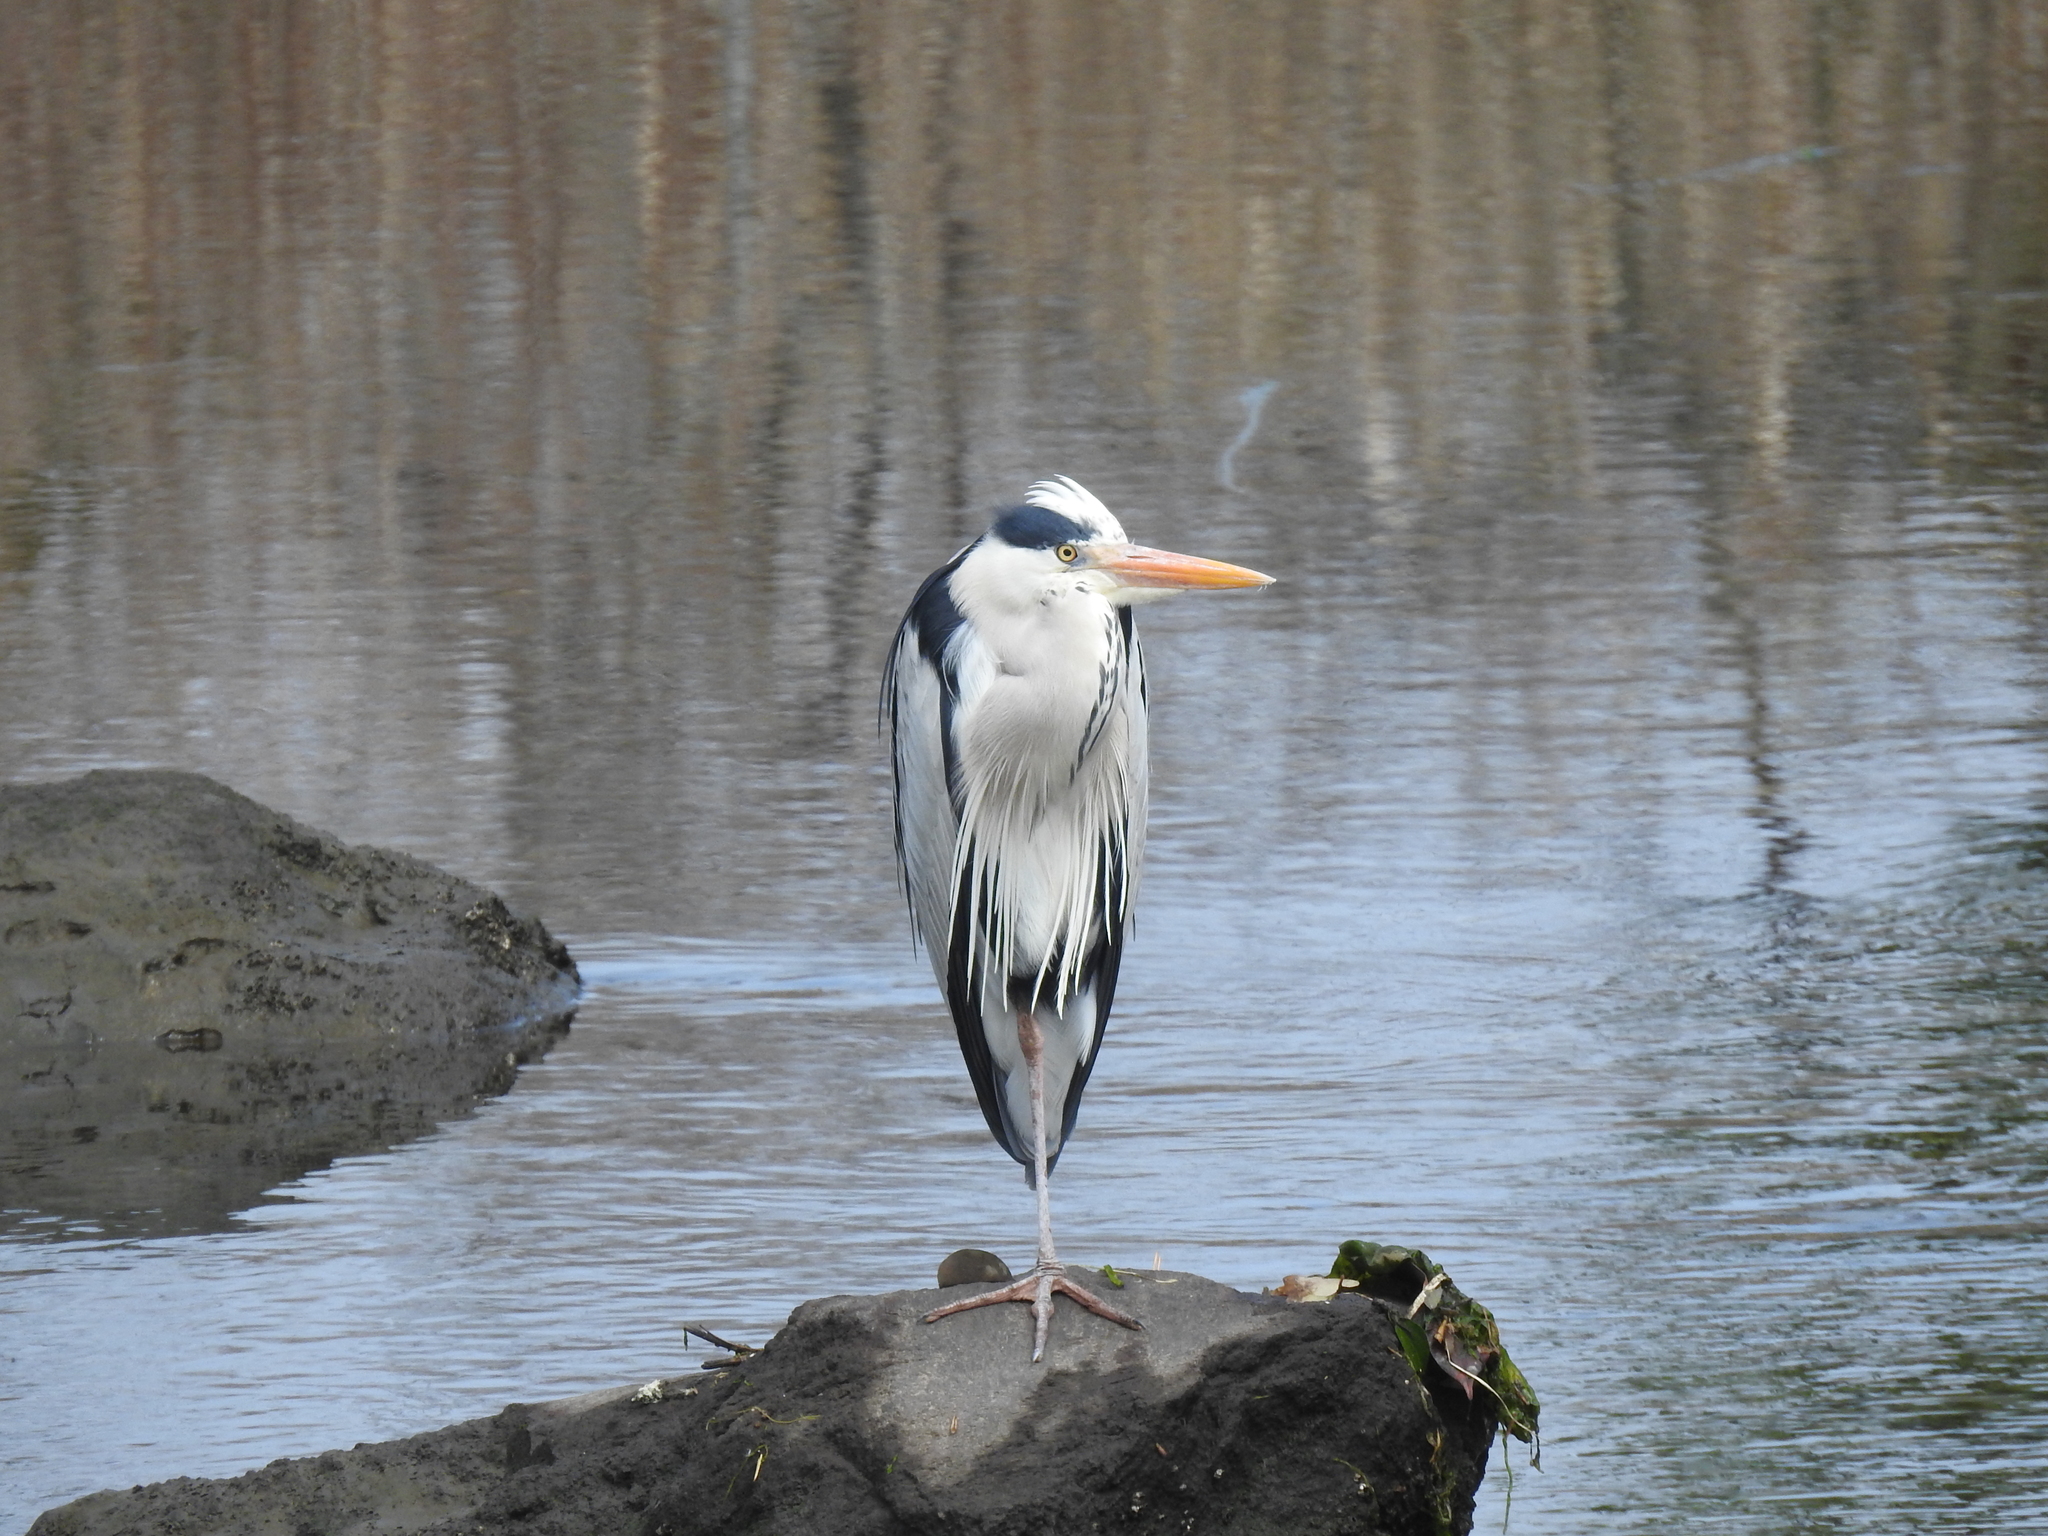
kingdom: Animalia
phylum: Chordata
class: Aves
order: Pelecaniformes
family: Ardeidae
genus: Ardea
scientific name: Ardea cinerea
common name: Grey heron
